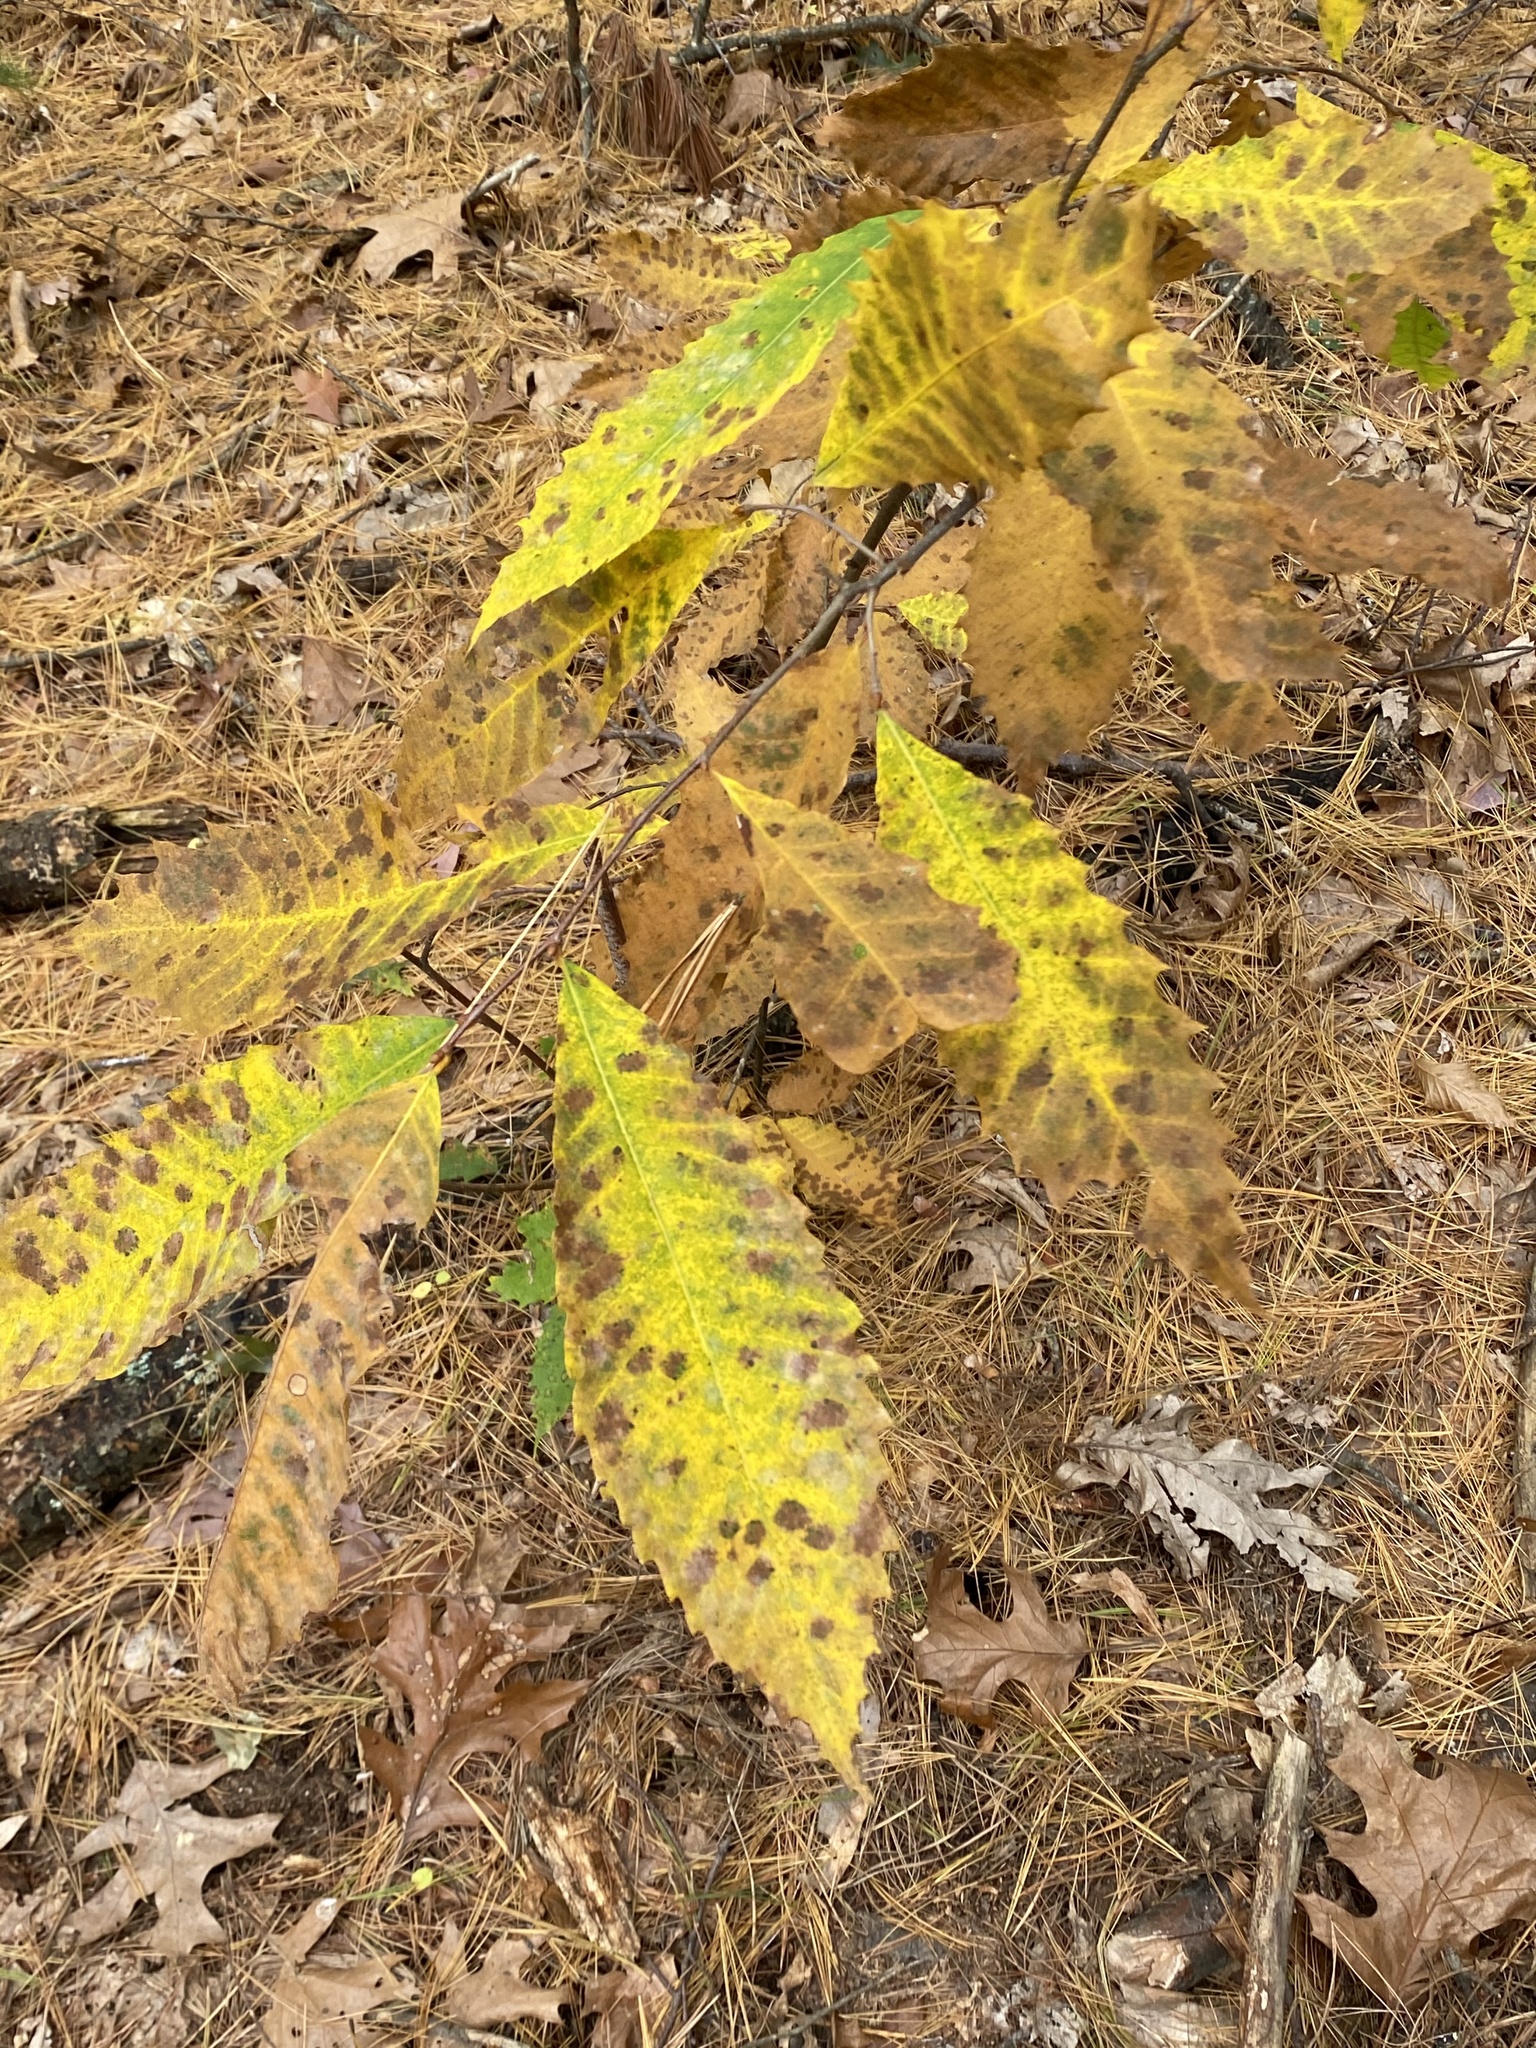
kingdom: Plantae
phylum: Tracheophyta
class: Magnoliopsida
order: Fagales
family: Fagaceae
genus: Castanea
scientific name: Castanea dentata
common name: American chestnut
